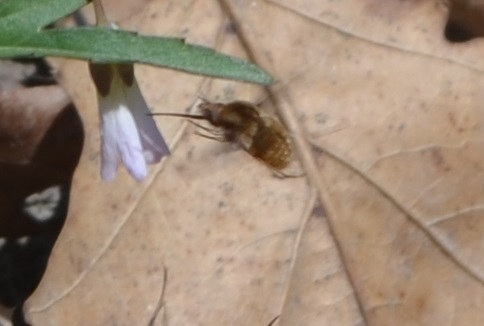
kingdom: Animalia
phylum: Arthropoda
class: Insecta
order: Diptera
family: Bombyliidae
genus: Bombylius
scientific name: Bombylius major
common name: Bee fly
